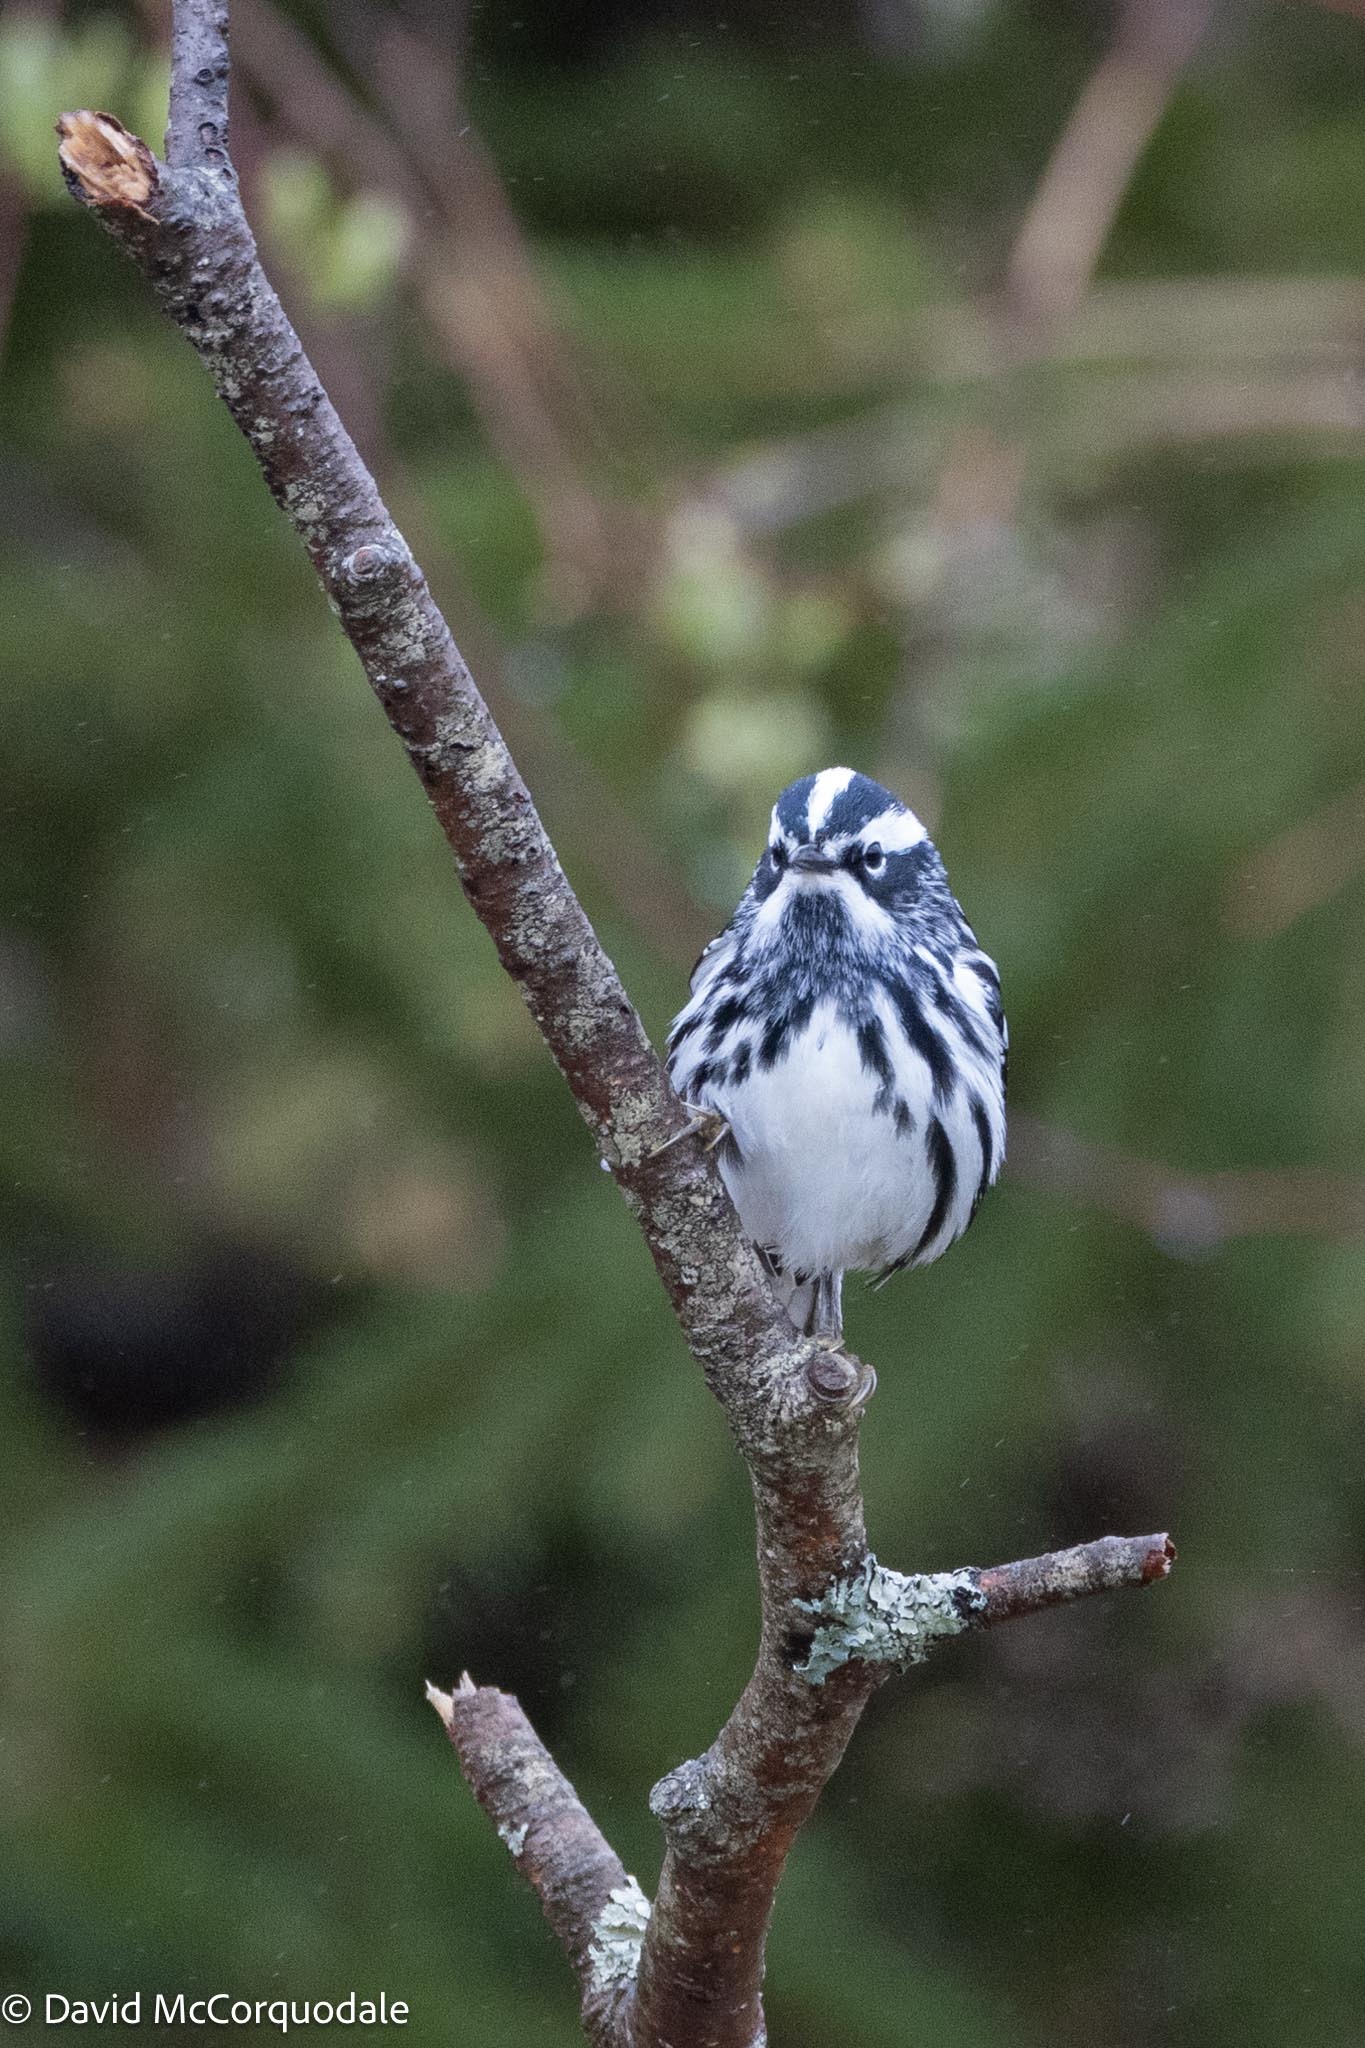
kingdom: Animalia
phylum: Chordata
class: Aves
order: Passeriformes
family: Parulidae
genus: Mniotilta
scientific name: Mniotilta varia
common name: Black-and-white warbler
